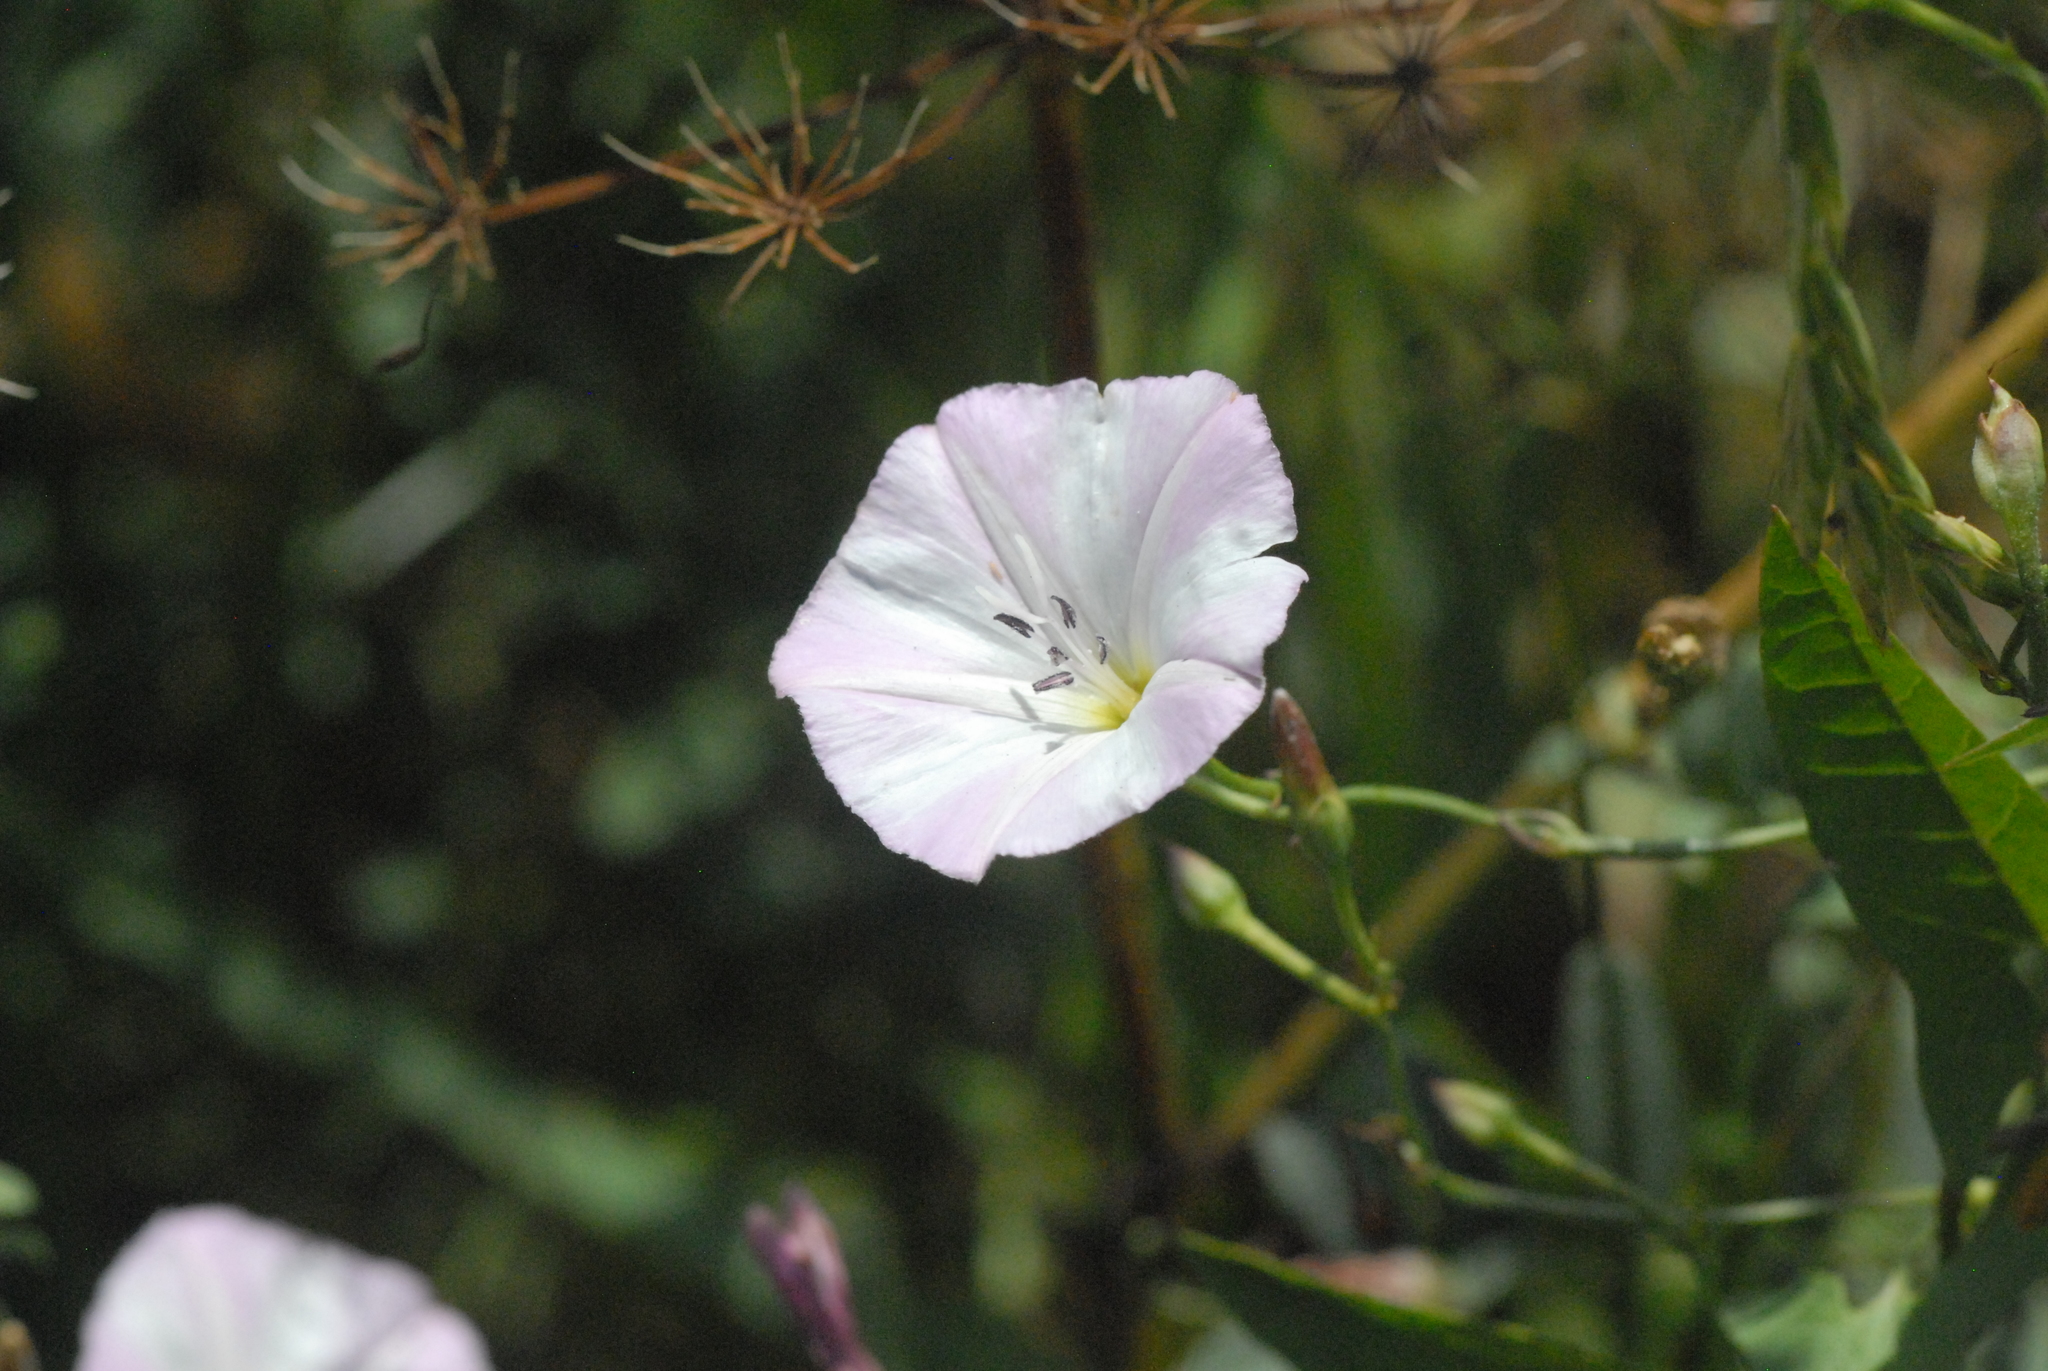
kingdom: Plantae
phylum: Tracheophyta
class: Magnoliopsida
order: Solanales
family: Convolvulaceae
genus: Convolvulus
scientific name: Convolvulus arvensis
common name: Field bindweed
